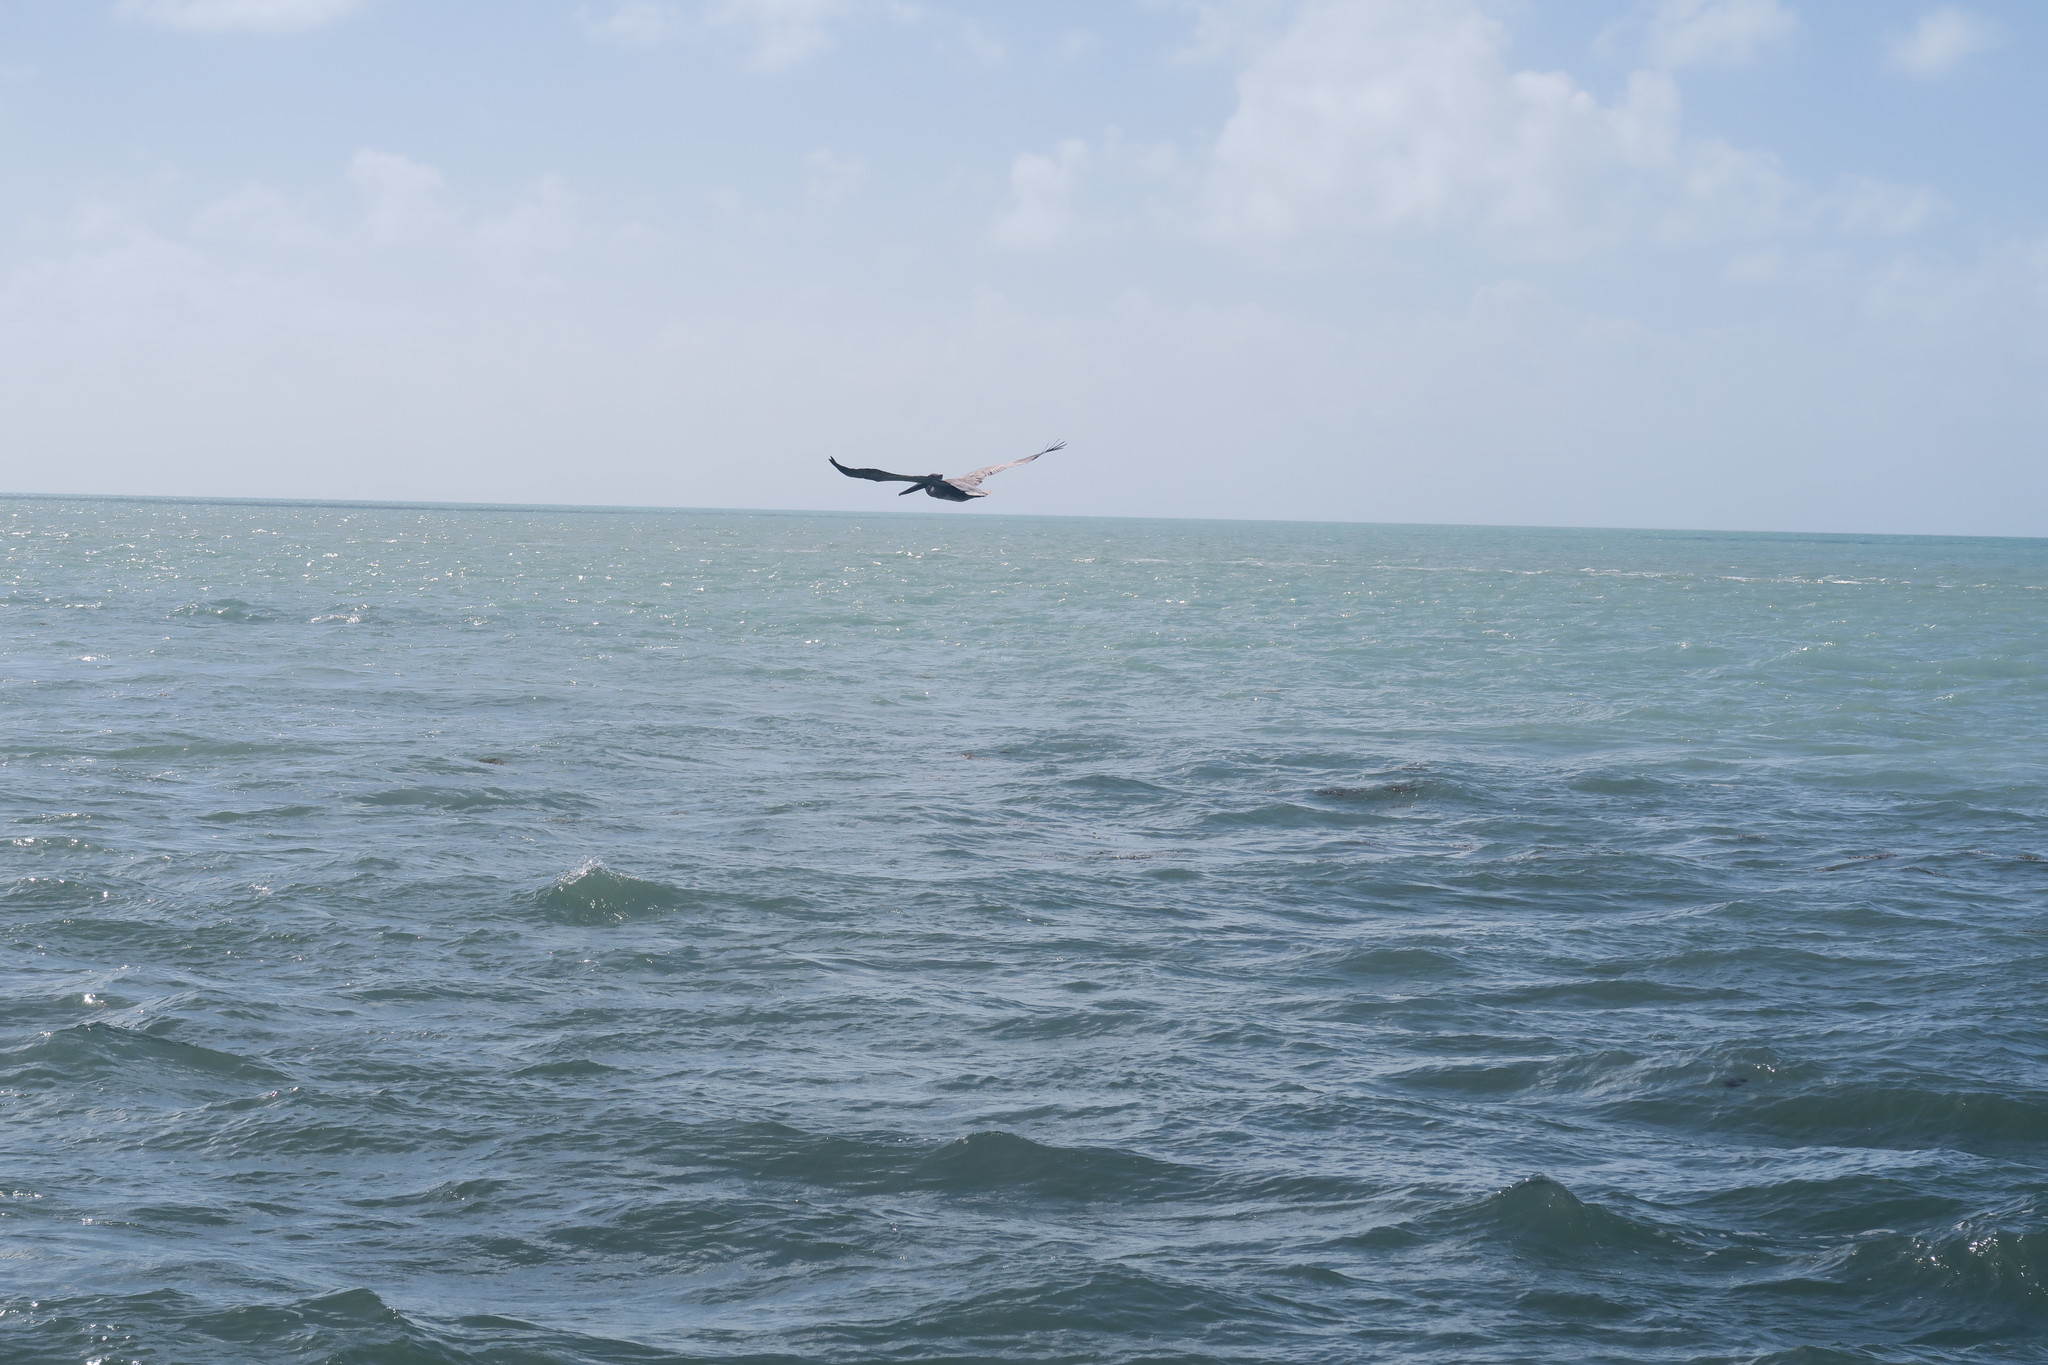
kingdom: Animalia
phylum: Chordata
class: Aves
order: Pelecaniformes
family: Pelecanidae
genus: Pelecanus
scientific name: Pelecanus occidentalis
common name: Brown pelican
